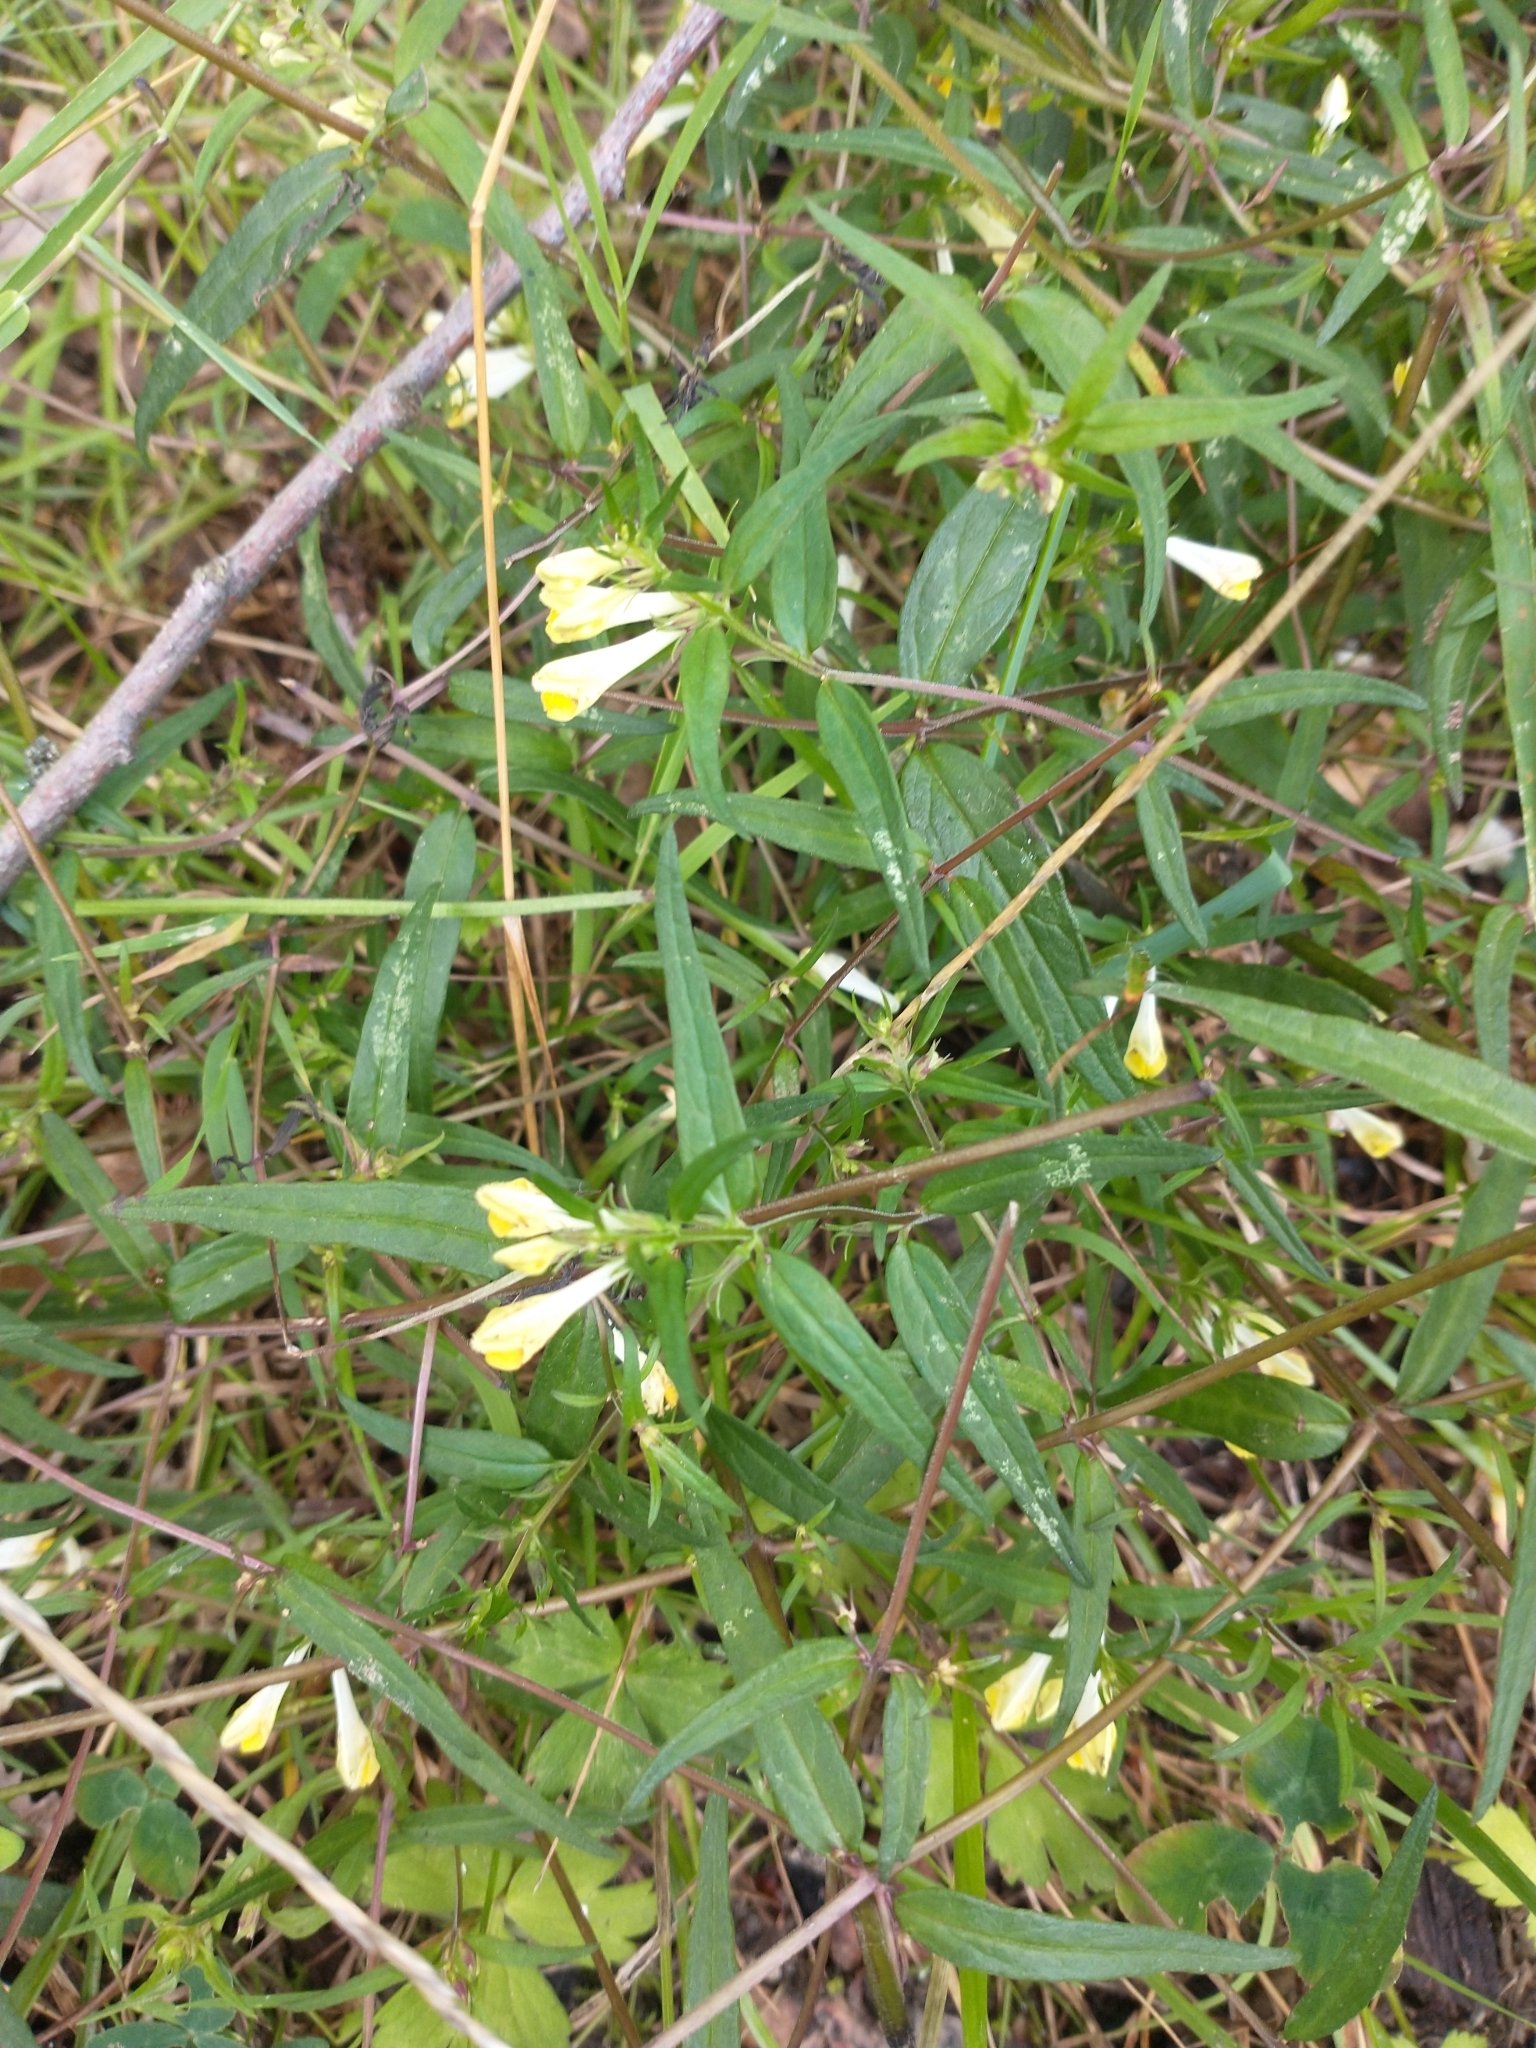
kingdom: Plantae
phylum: Tracheophyta
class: Magnoliopsida
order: Lamiales
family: Orobanchaceae
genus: Melampyrum
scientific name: Melampyrum pratense
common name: Common cow-wheat
